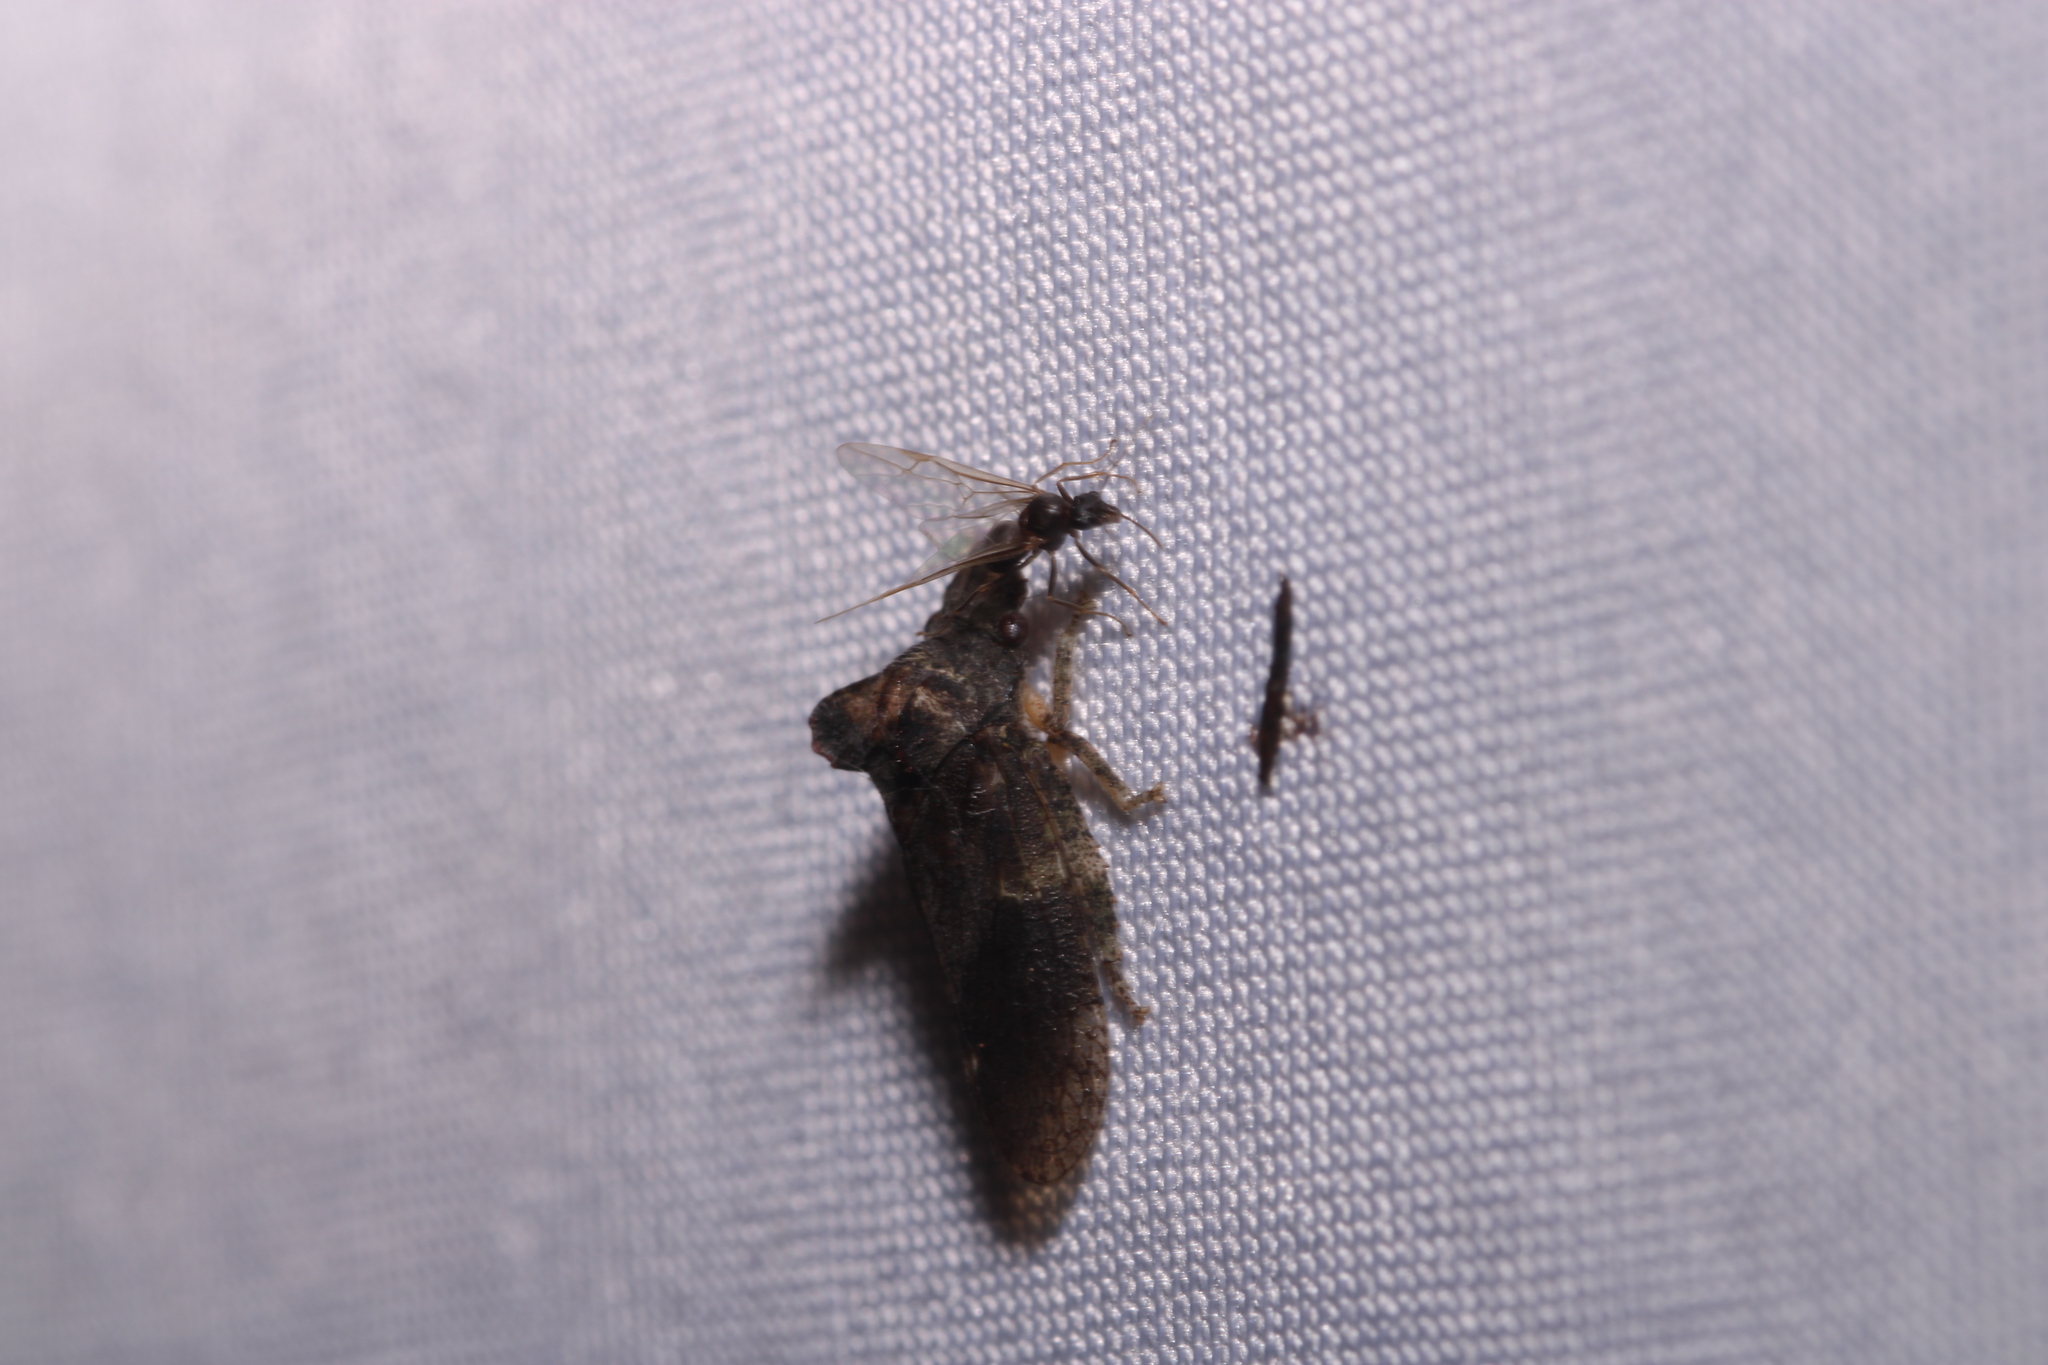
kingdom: Animalia
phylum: Arthropoda
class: Insecta
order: Hemiptera
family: Cicadellidae
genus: Ledra
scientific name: Ledra aurita
